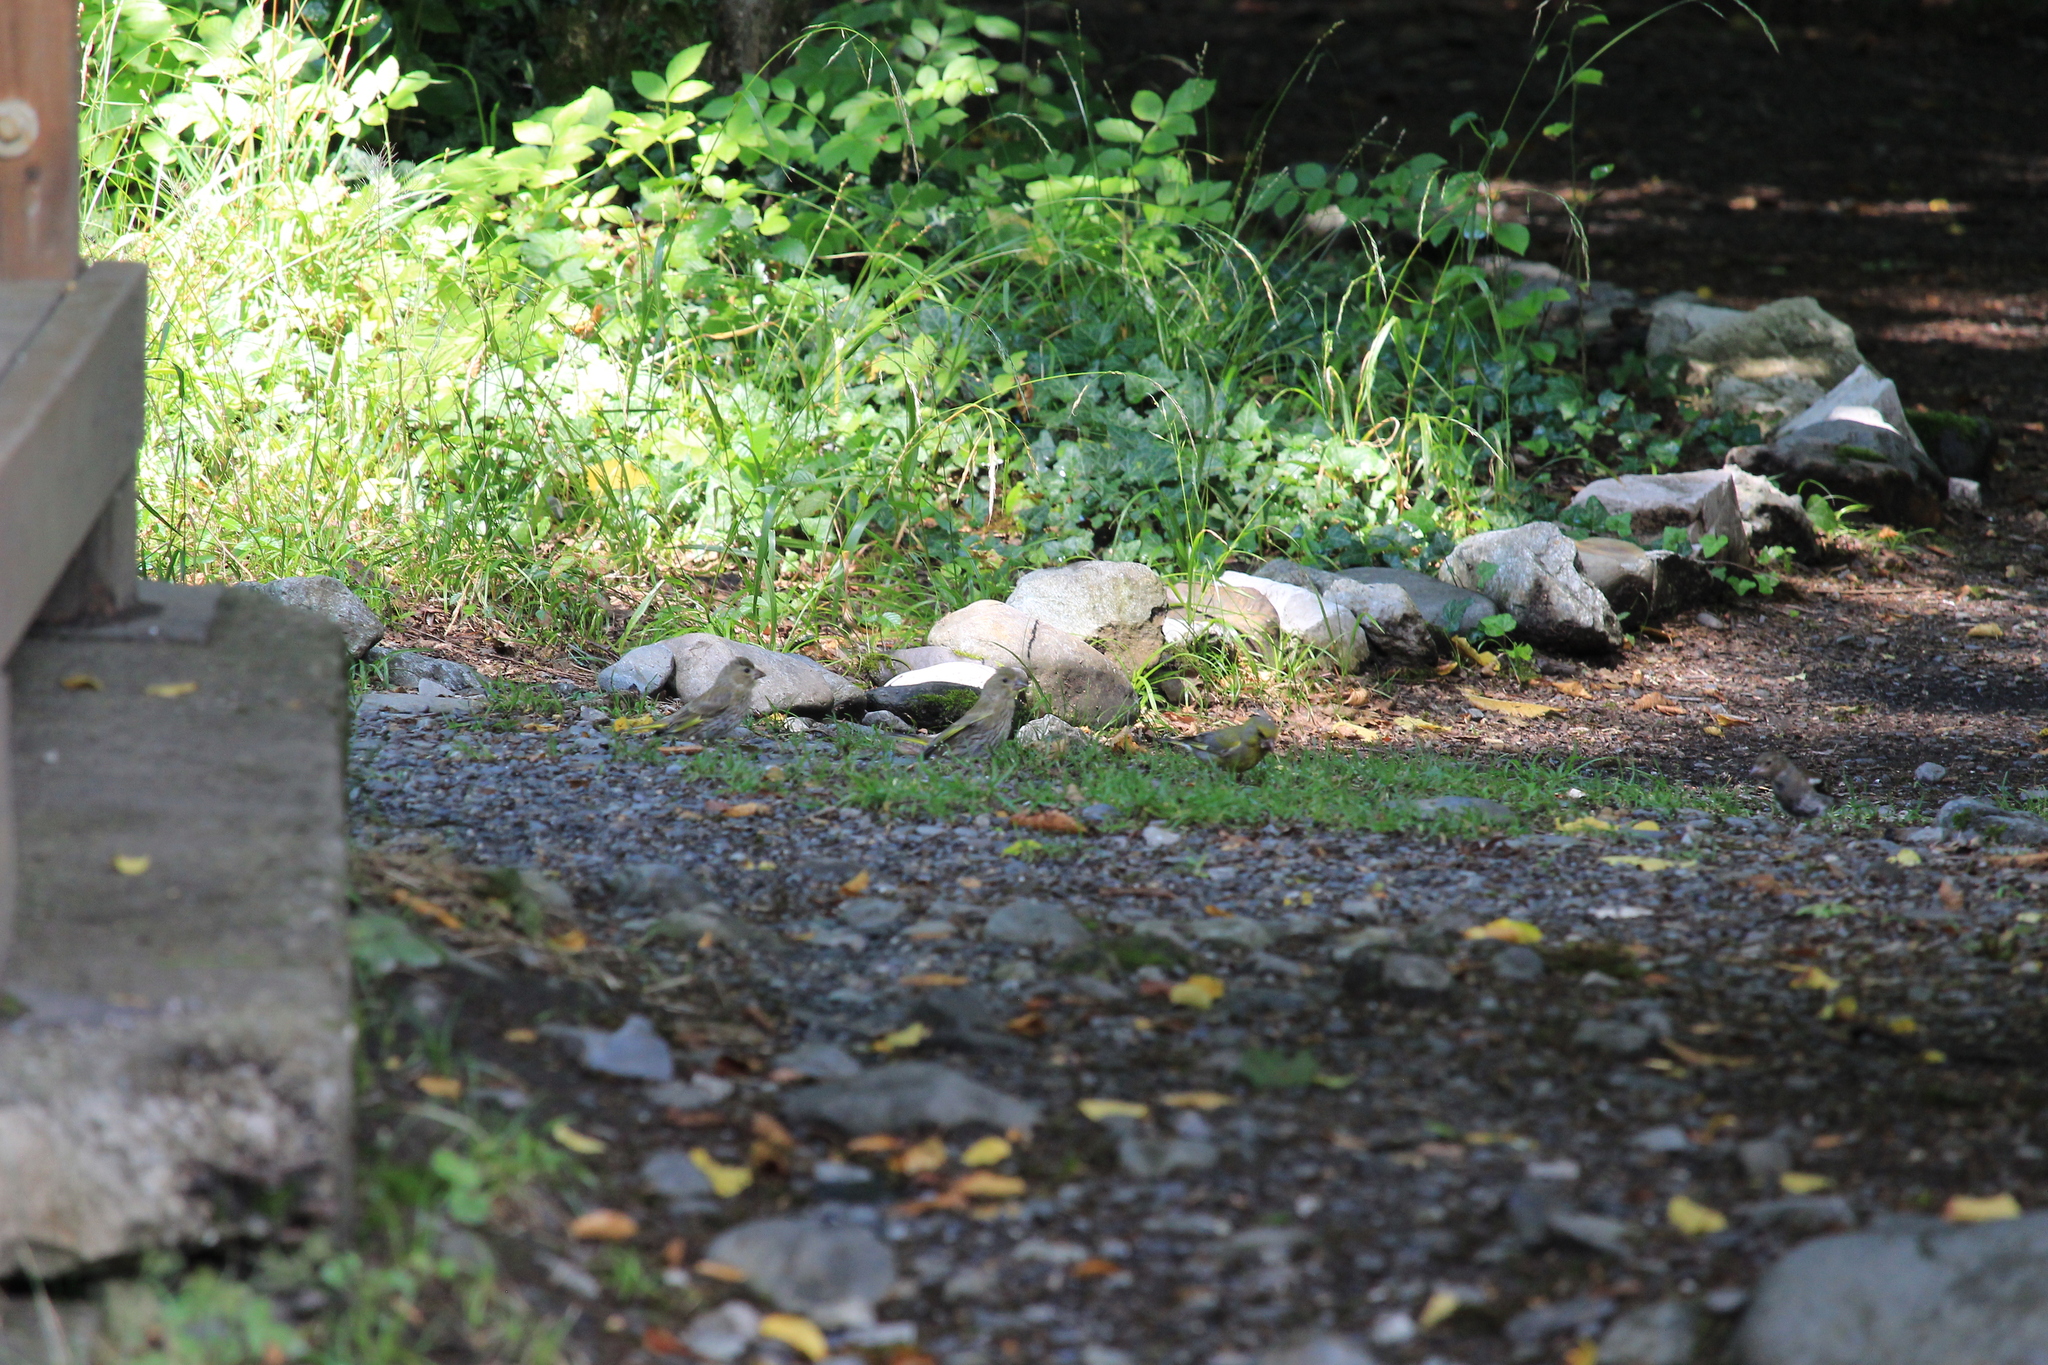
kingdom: Plantae
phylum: Tracheophyta
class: Liliopsida
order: Poales
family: Poaceae
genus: Chloris
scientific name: Chloris chloris
